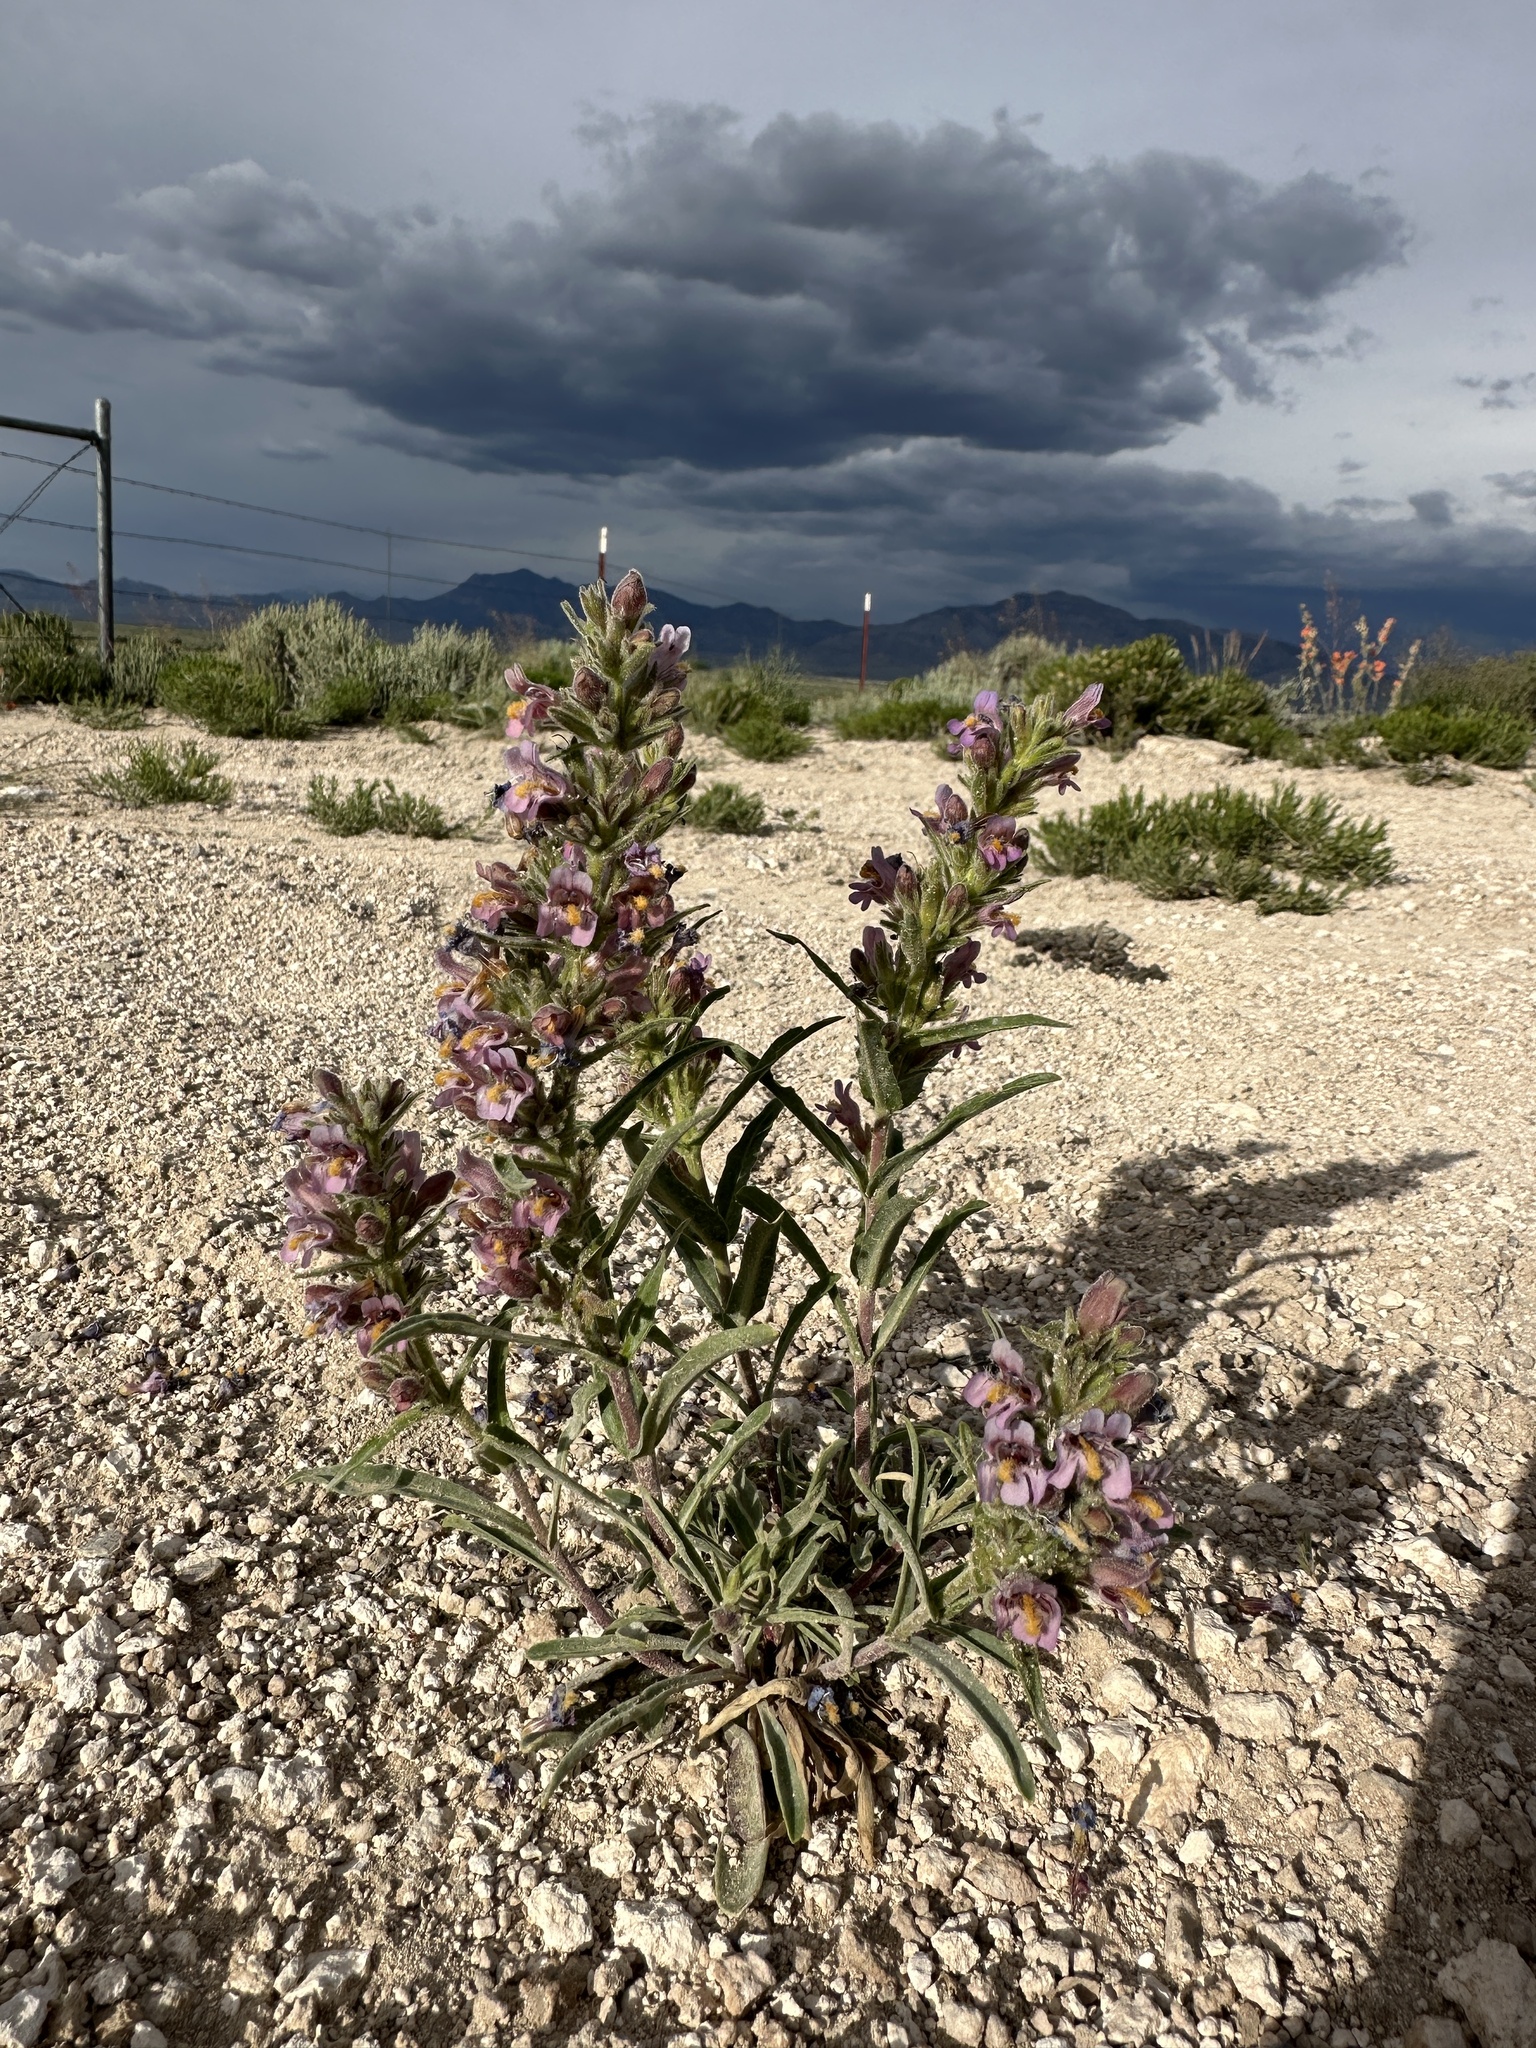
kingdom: Plantae
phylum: Tracheophyta
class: Magnoliopsida
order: Lamiales
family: Plantaginaceae
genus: Penstemon
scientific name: Penstemon barnebyi
